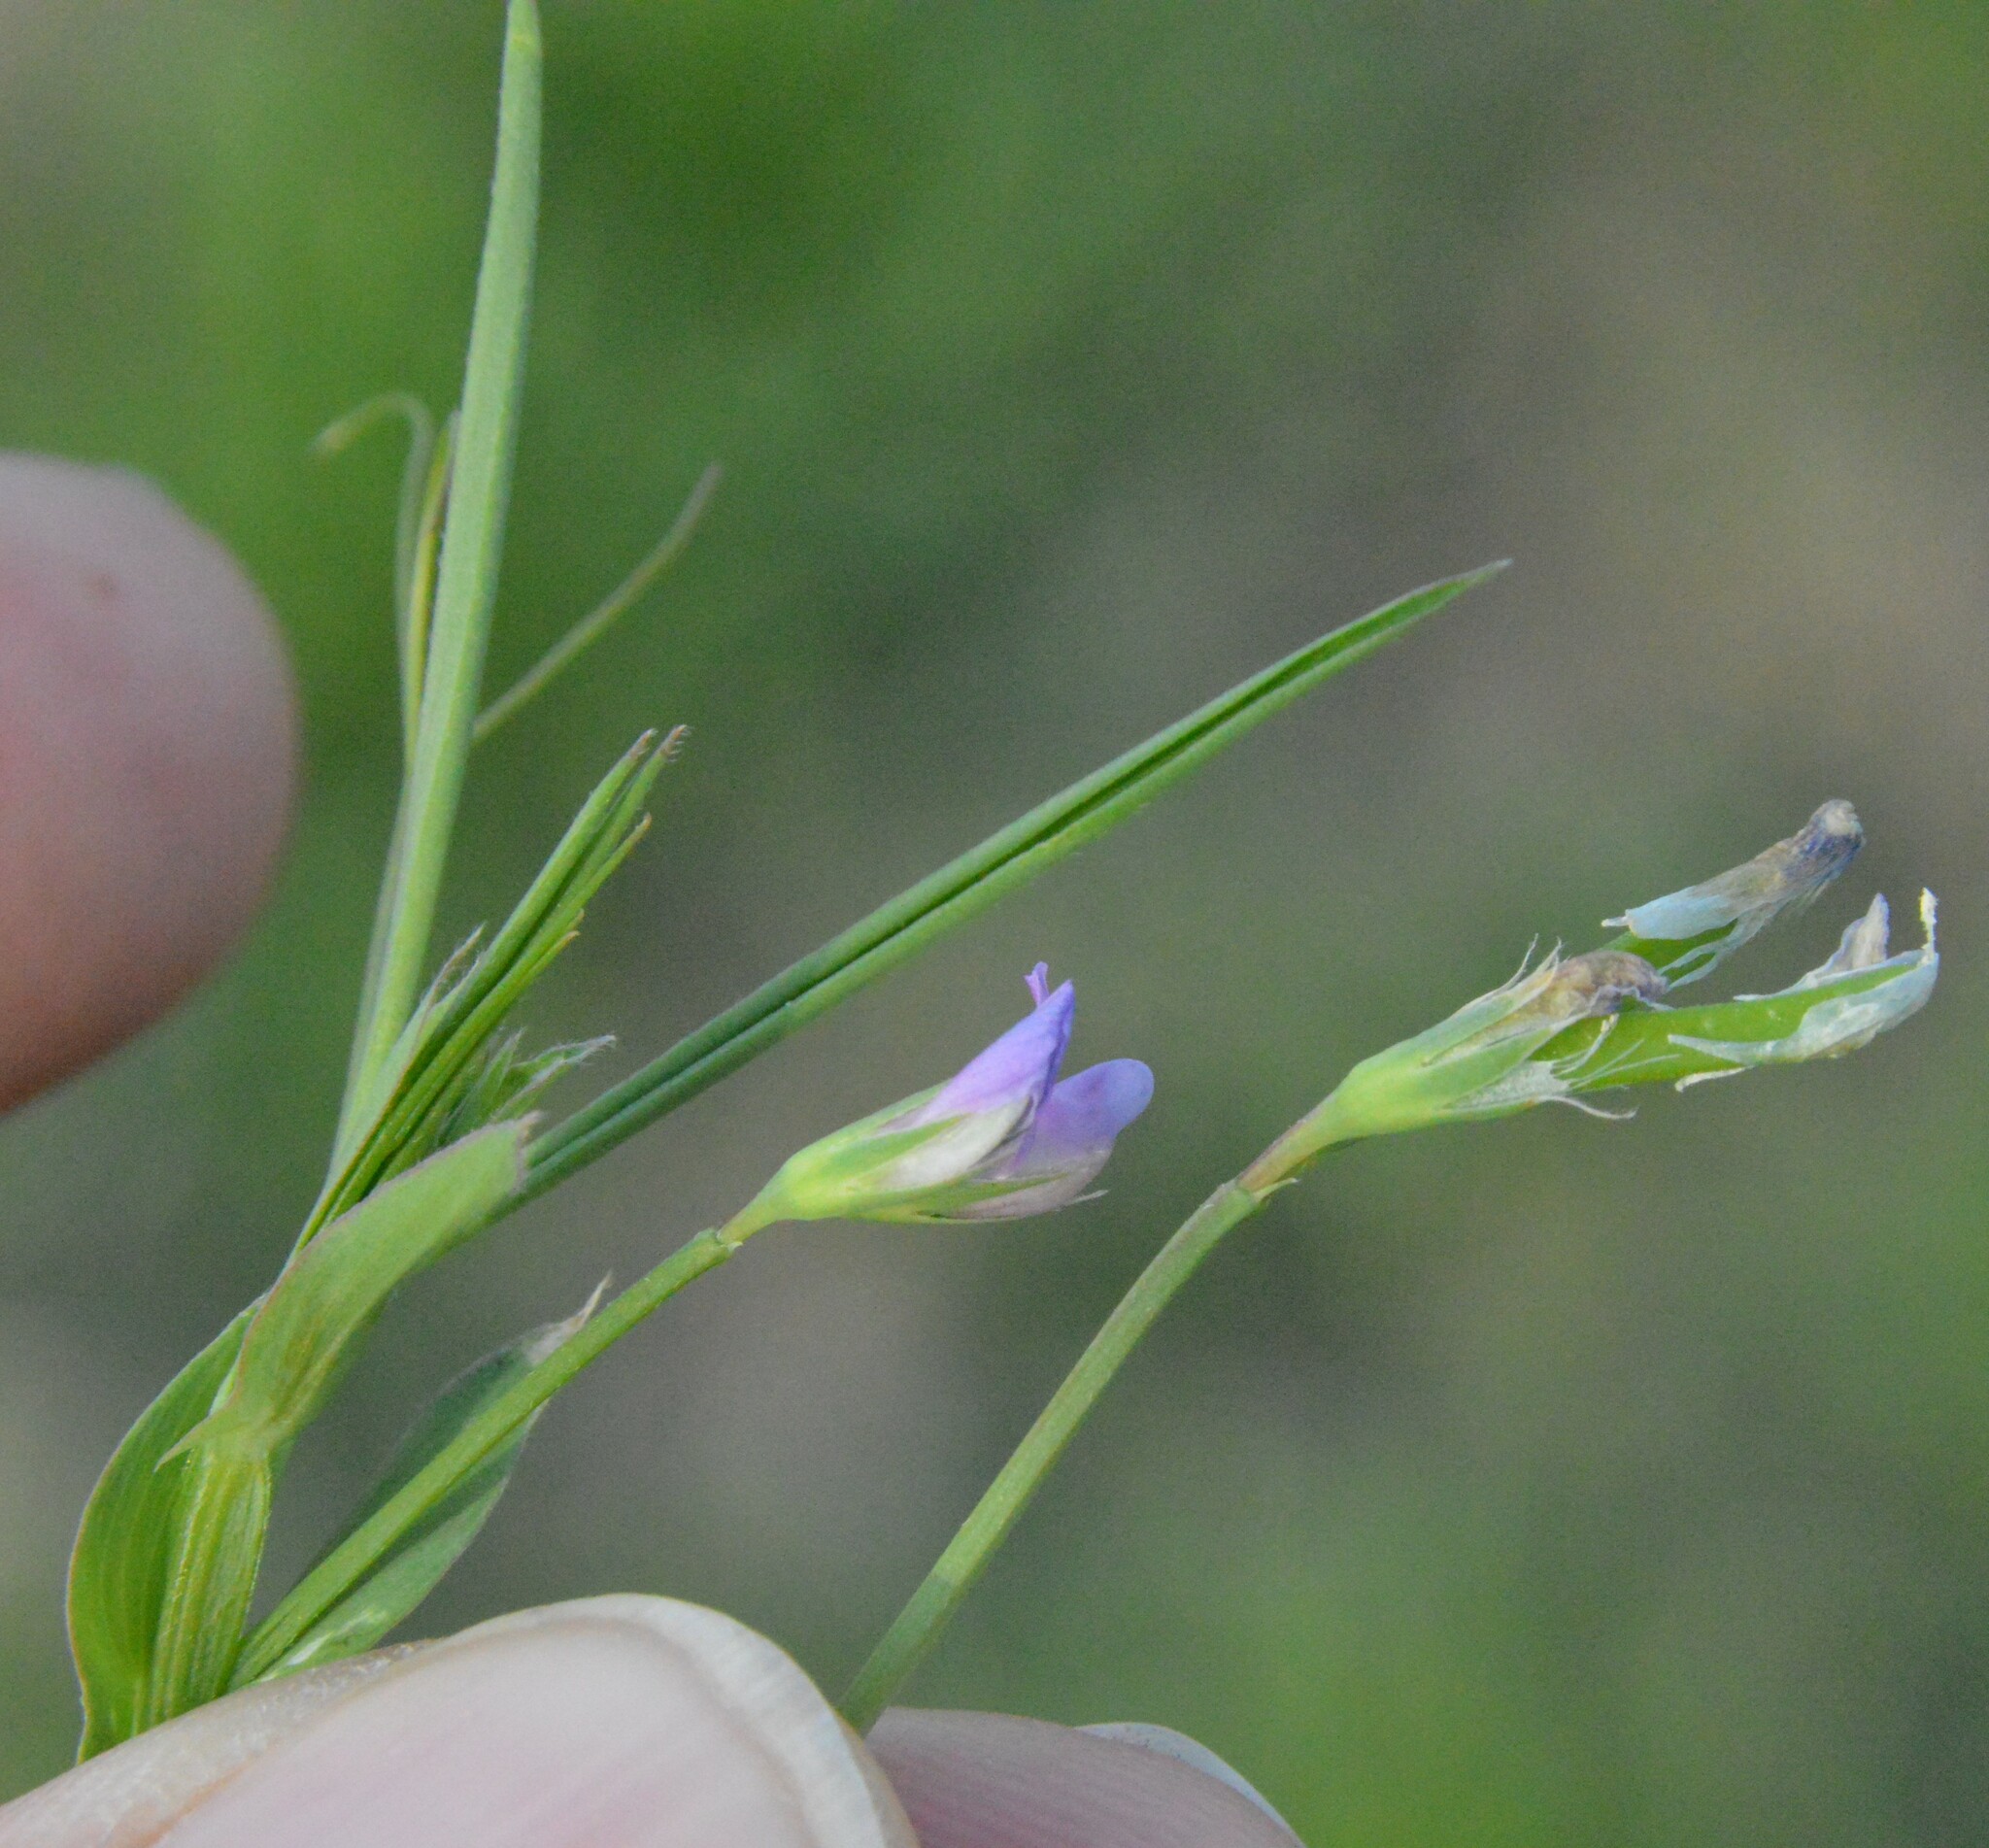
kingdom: Plantae
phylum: Tracheophyta
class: Magnoliopsida
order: Fabales
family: Fabaceae
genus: Lathyrus
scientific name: Lathyrus pusillus
